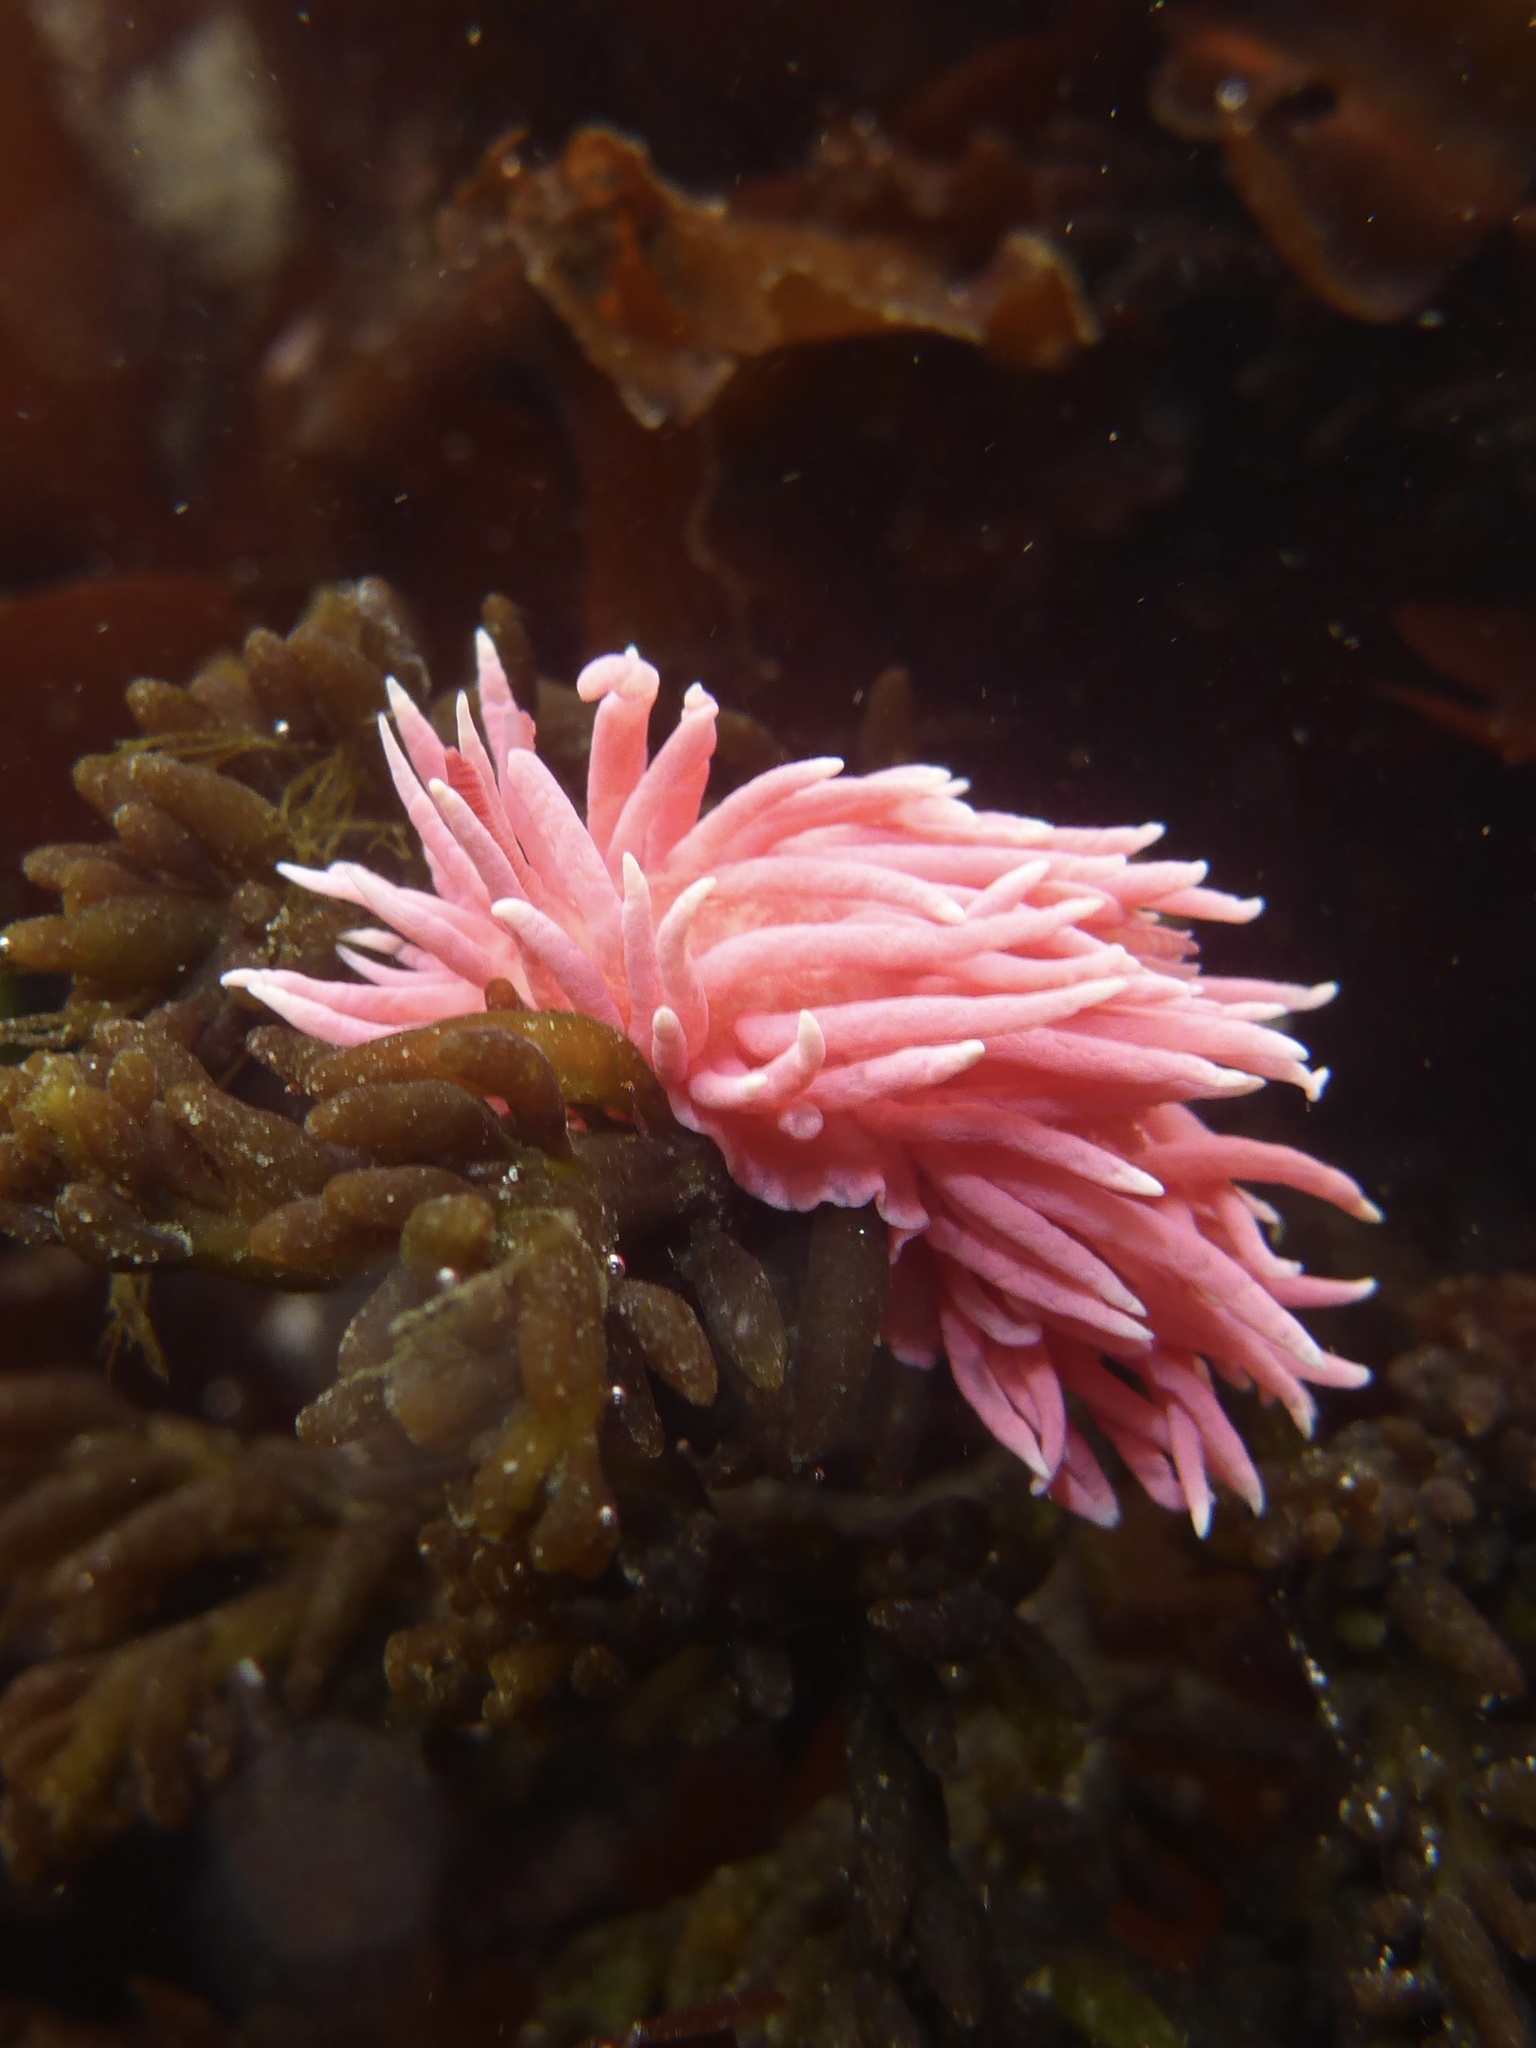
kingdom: Animalia
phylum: Mollusca
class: Gastropoda
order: Nudibranchia
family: Goniodorididae
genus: Okenia
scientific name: Okenia
